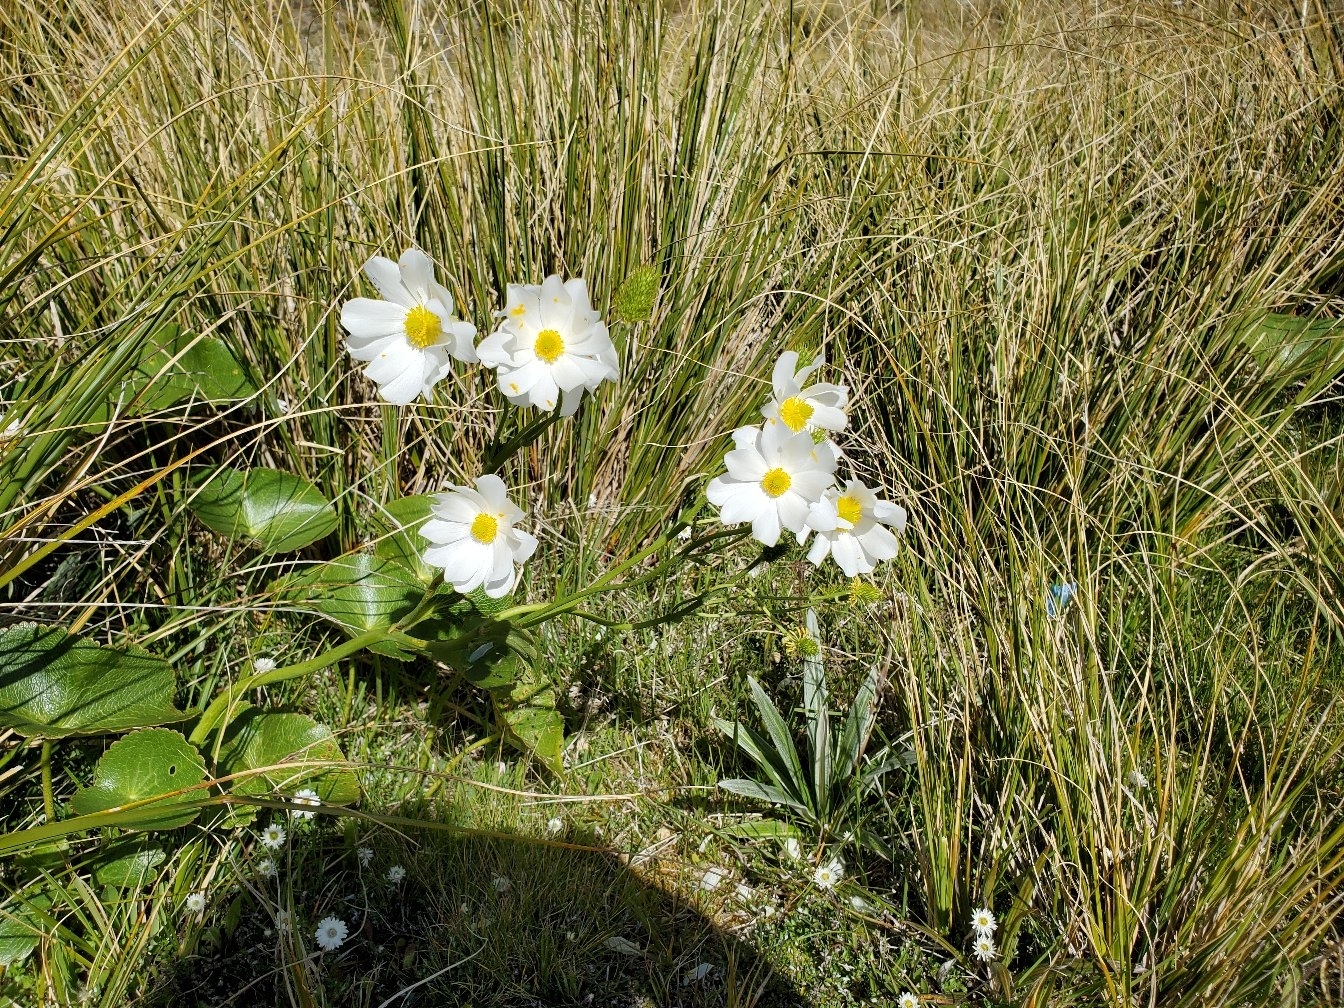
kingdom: Plantae
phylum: Tracheophyta
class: Magnoliopsida
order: Ranunculales
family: Ranunculaceae
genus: Ranunculus
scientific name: Ranunculus lyallii
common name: Mountain-lily
